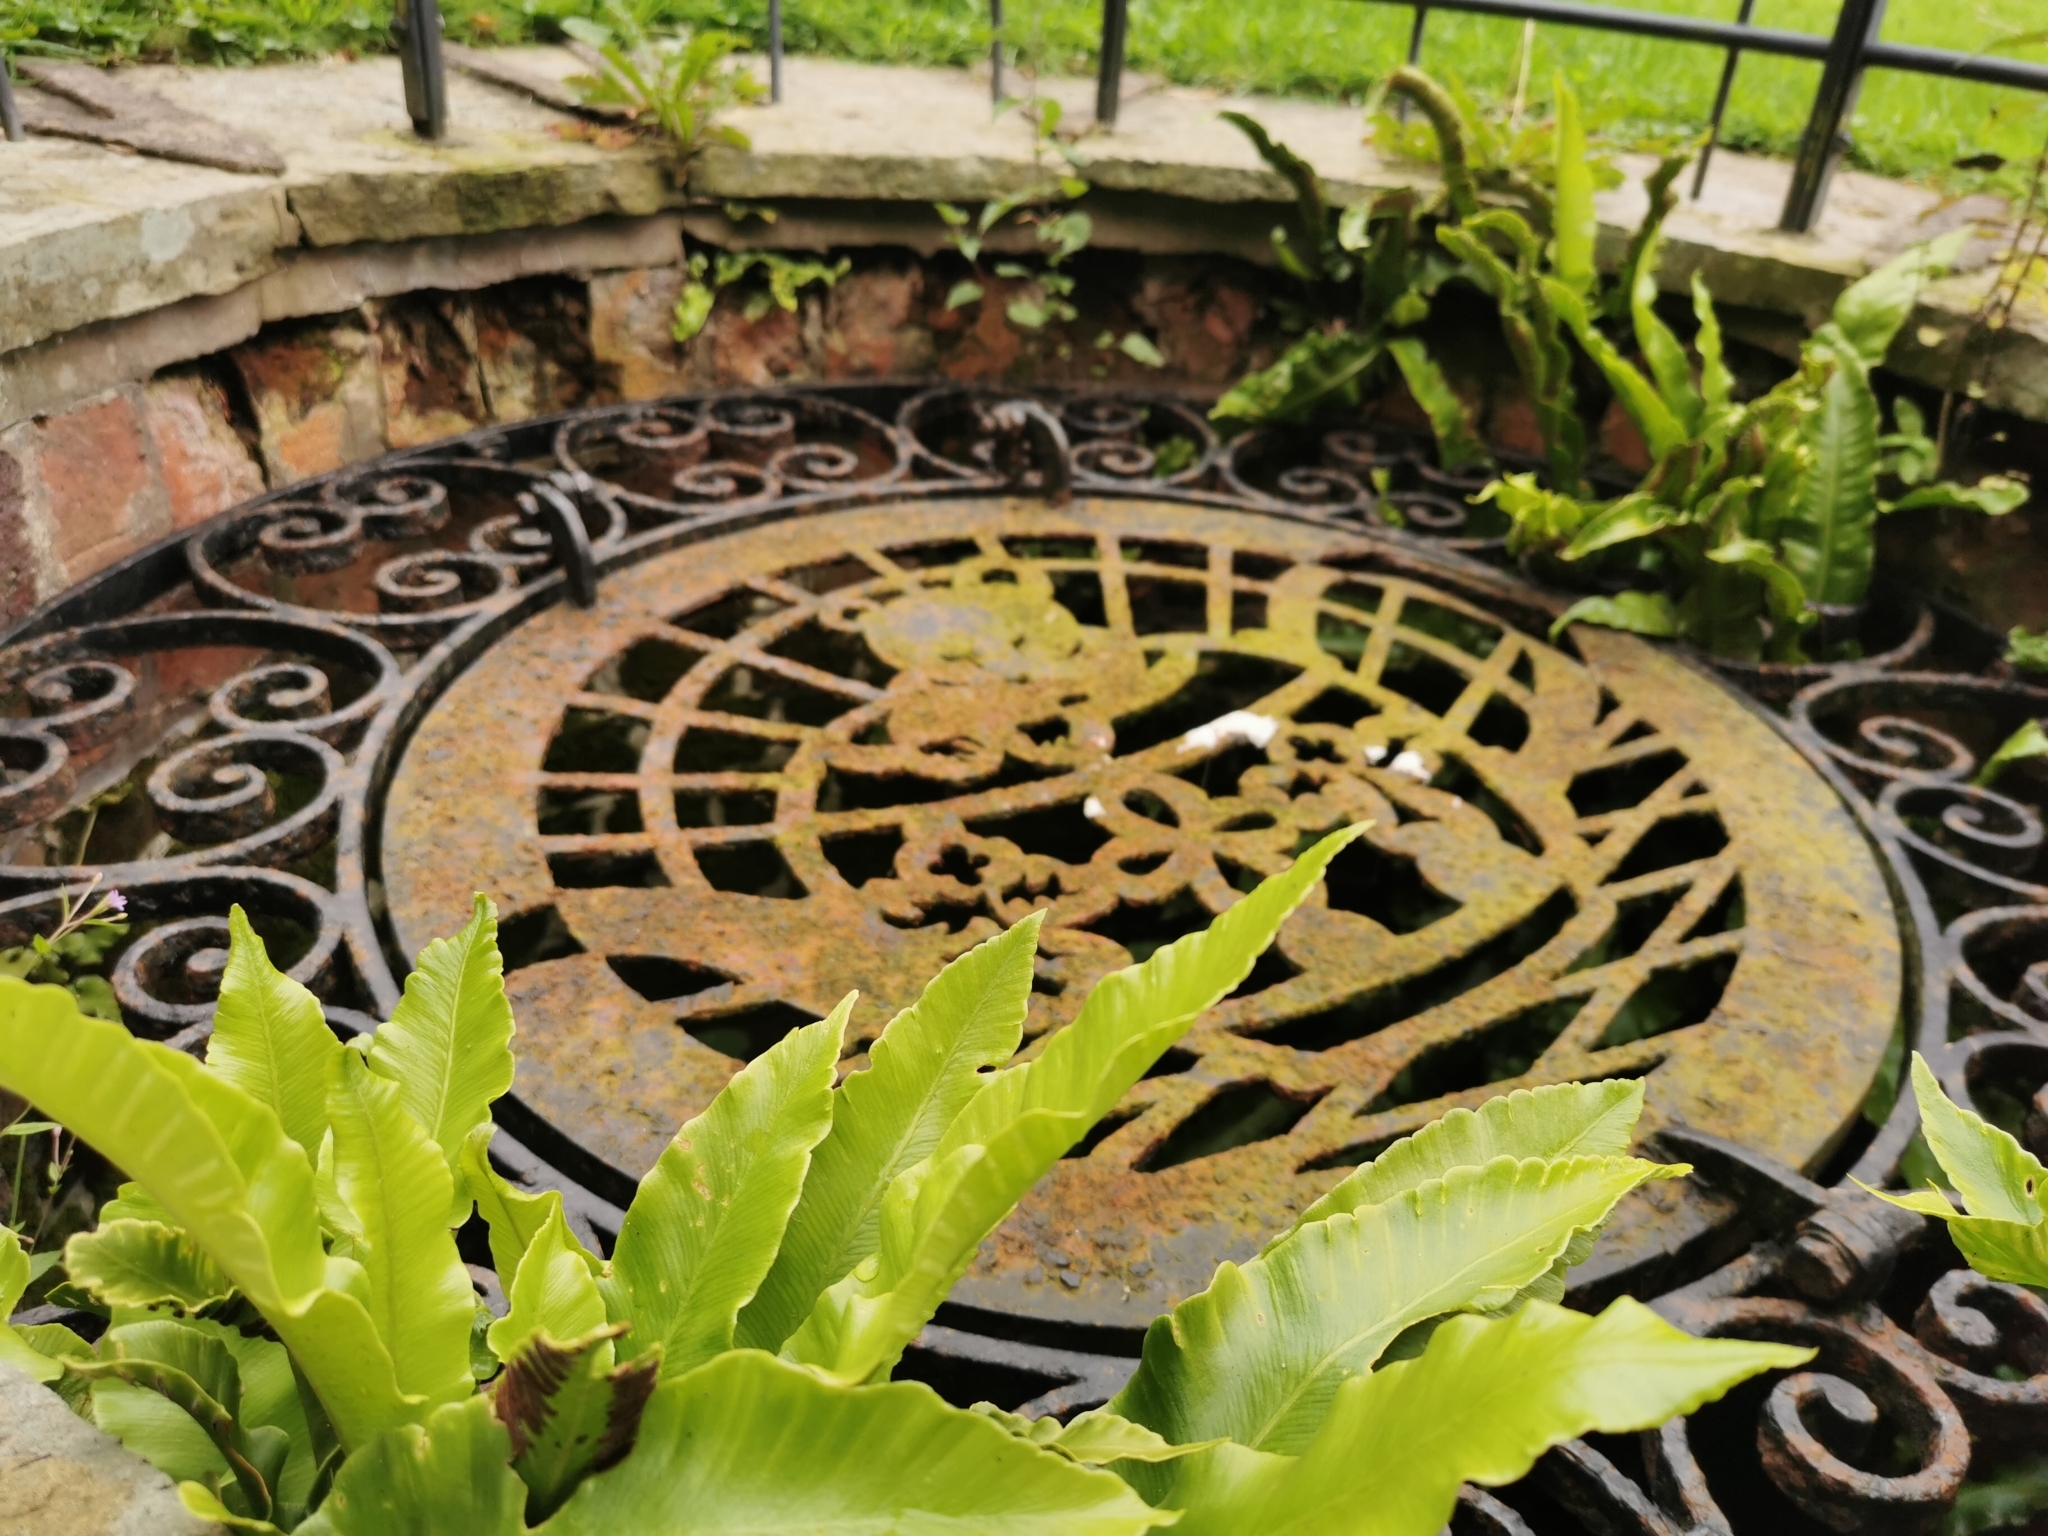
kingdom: Plantae
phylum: Tracheophyta
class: Polypodiopsida
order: Polypodiales
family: Aspleniaceae
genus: Asplenium
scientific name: Asplenium scolopendrium
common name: Hart's-tongue fern
